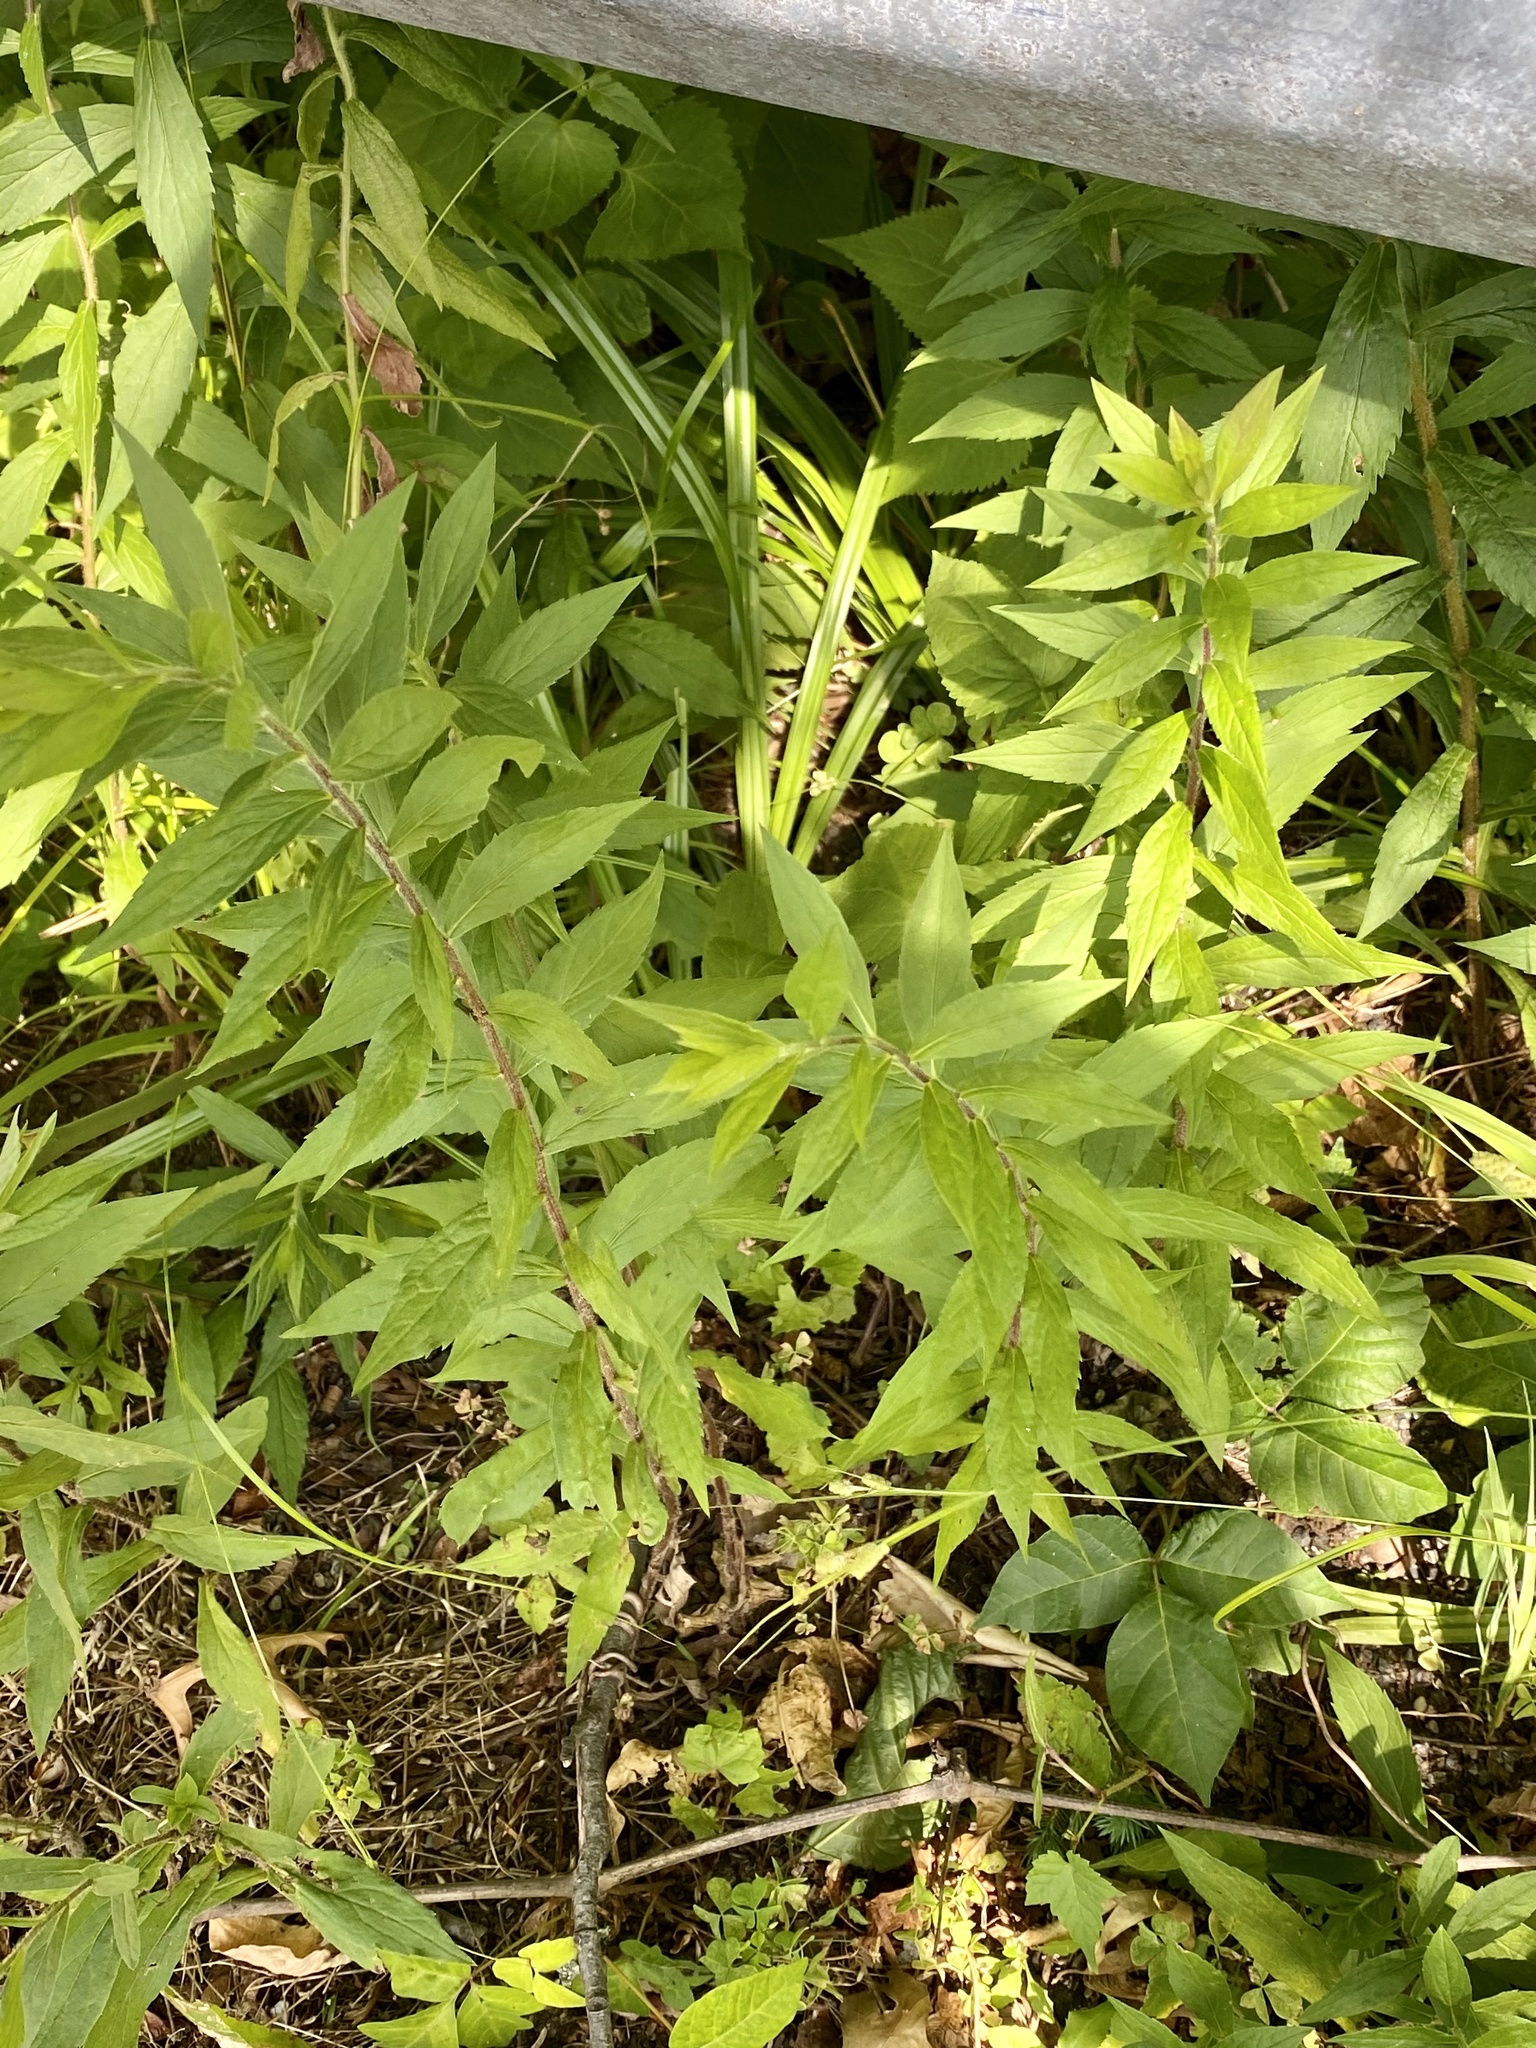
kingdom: Plantae
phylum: Tracheophyta
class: Magnoliopsida
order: Asterales
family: Asteraceae
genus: Solidago
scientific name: Solidago rugosa
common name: Rough-stemmed goldenrod
